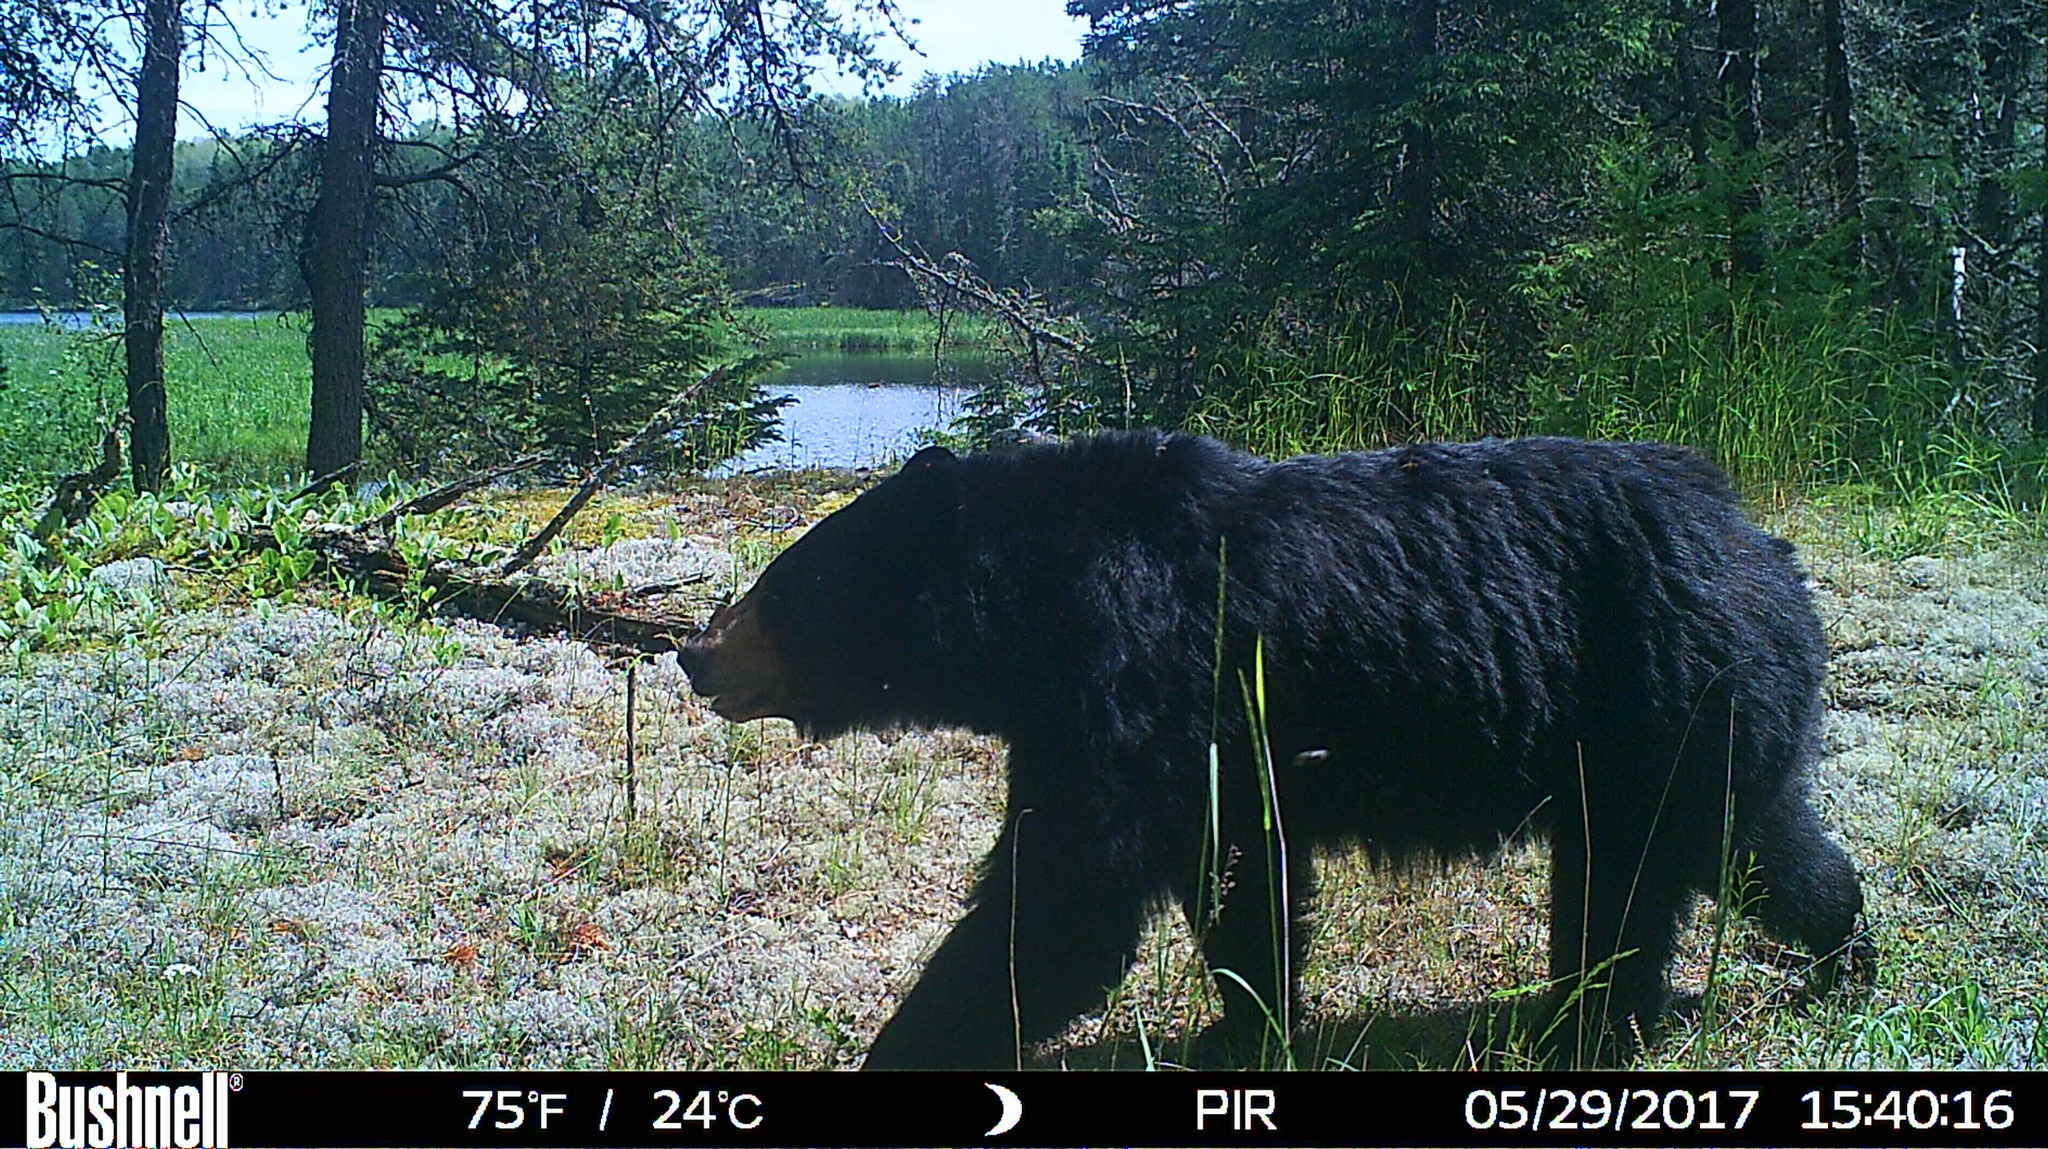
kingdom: Animalia
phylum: Chordata
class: Mammalia
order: Carnivora
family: Ursidae
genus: Ursus
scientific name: Ursus americanus
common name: American black bear
